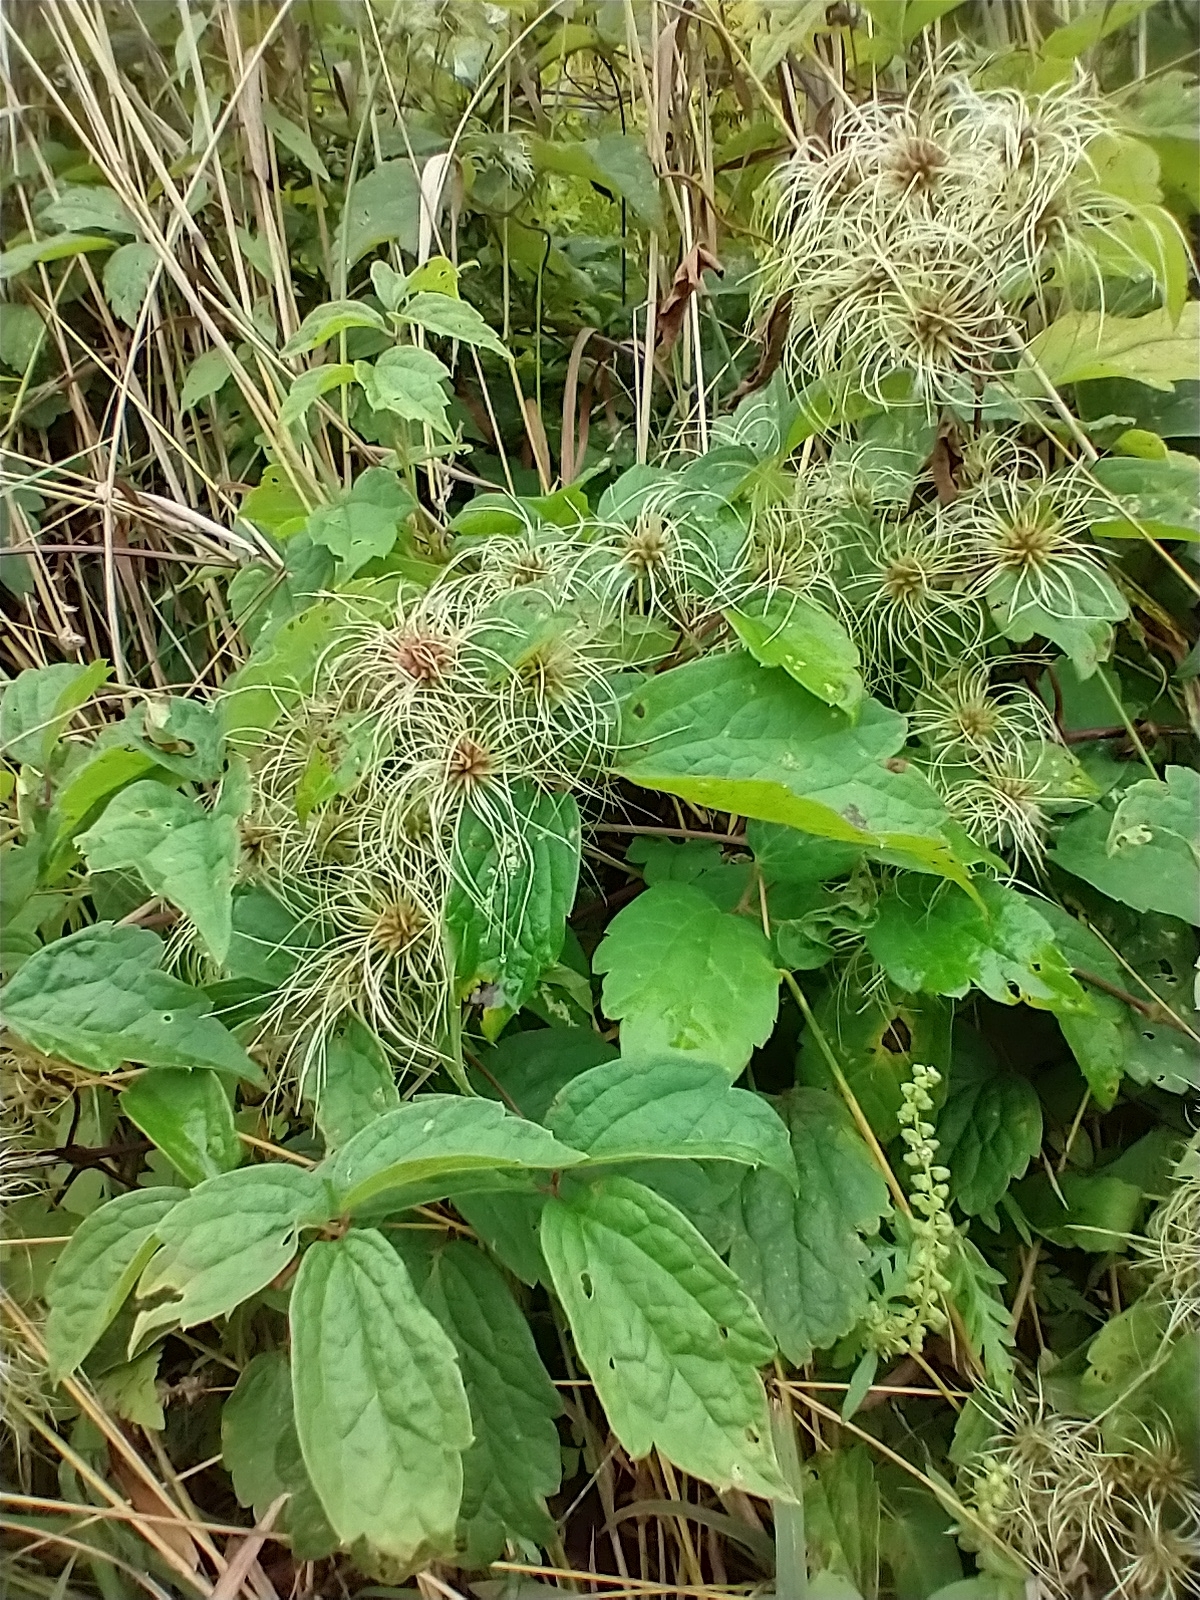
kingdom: Plantae
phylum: Tracheophyta
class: Magnoliopsida
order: Ranunculales
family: Ranunculaceae
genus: Clematis
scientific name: Clematis virginiana
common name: Virgin's-bower
